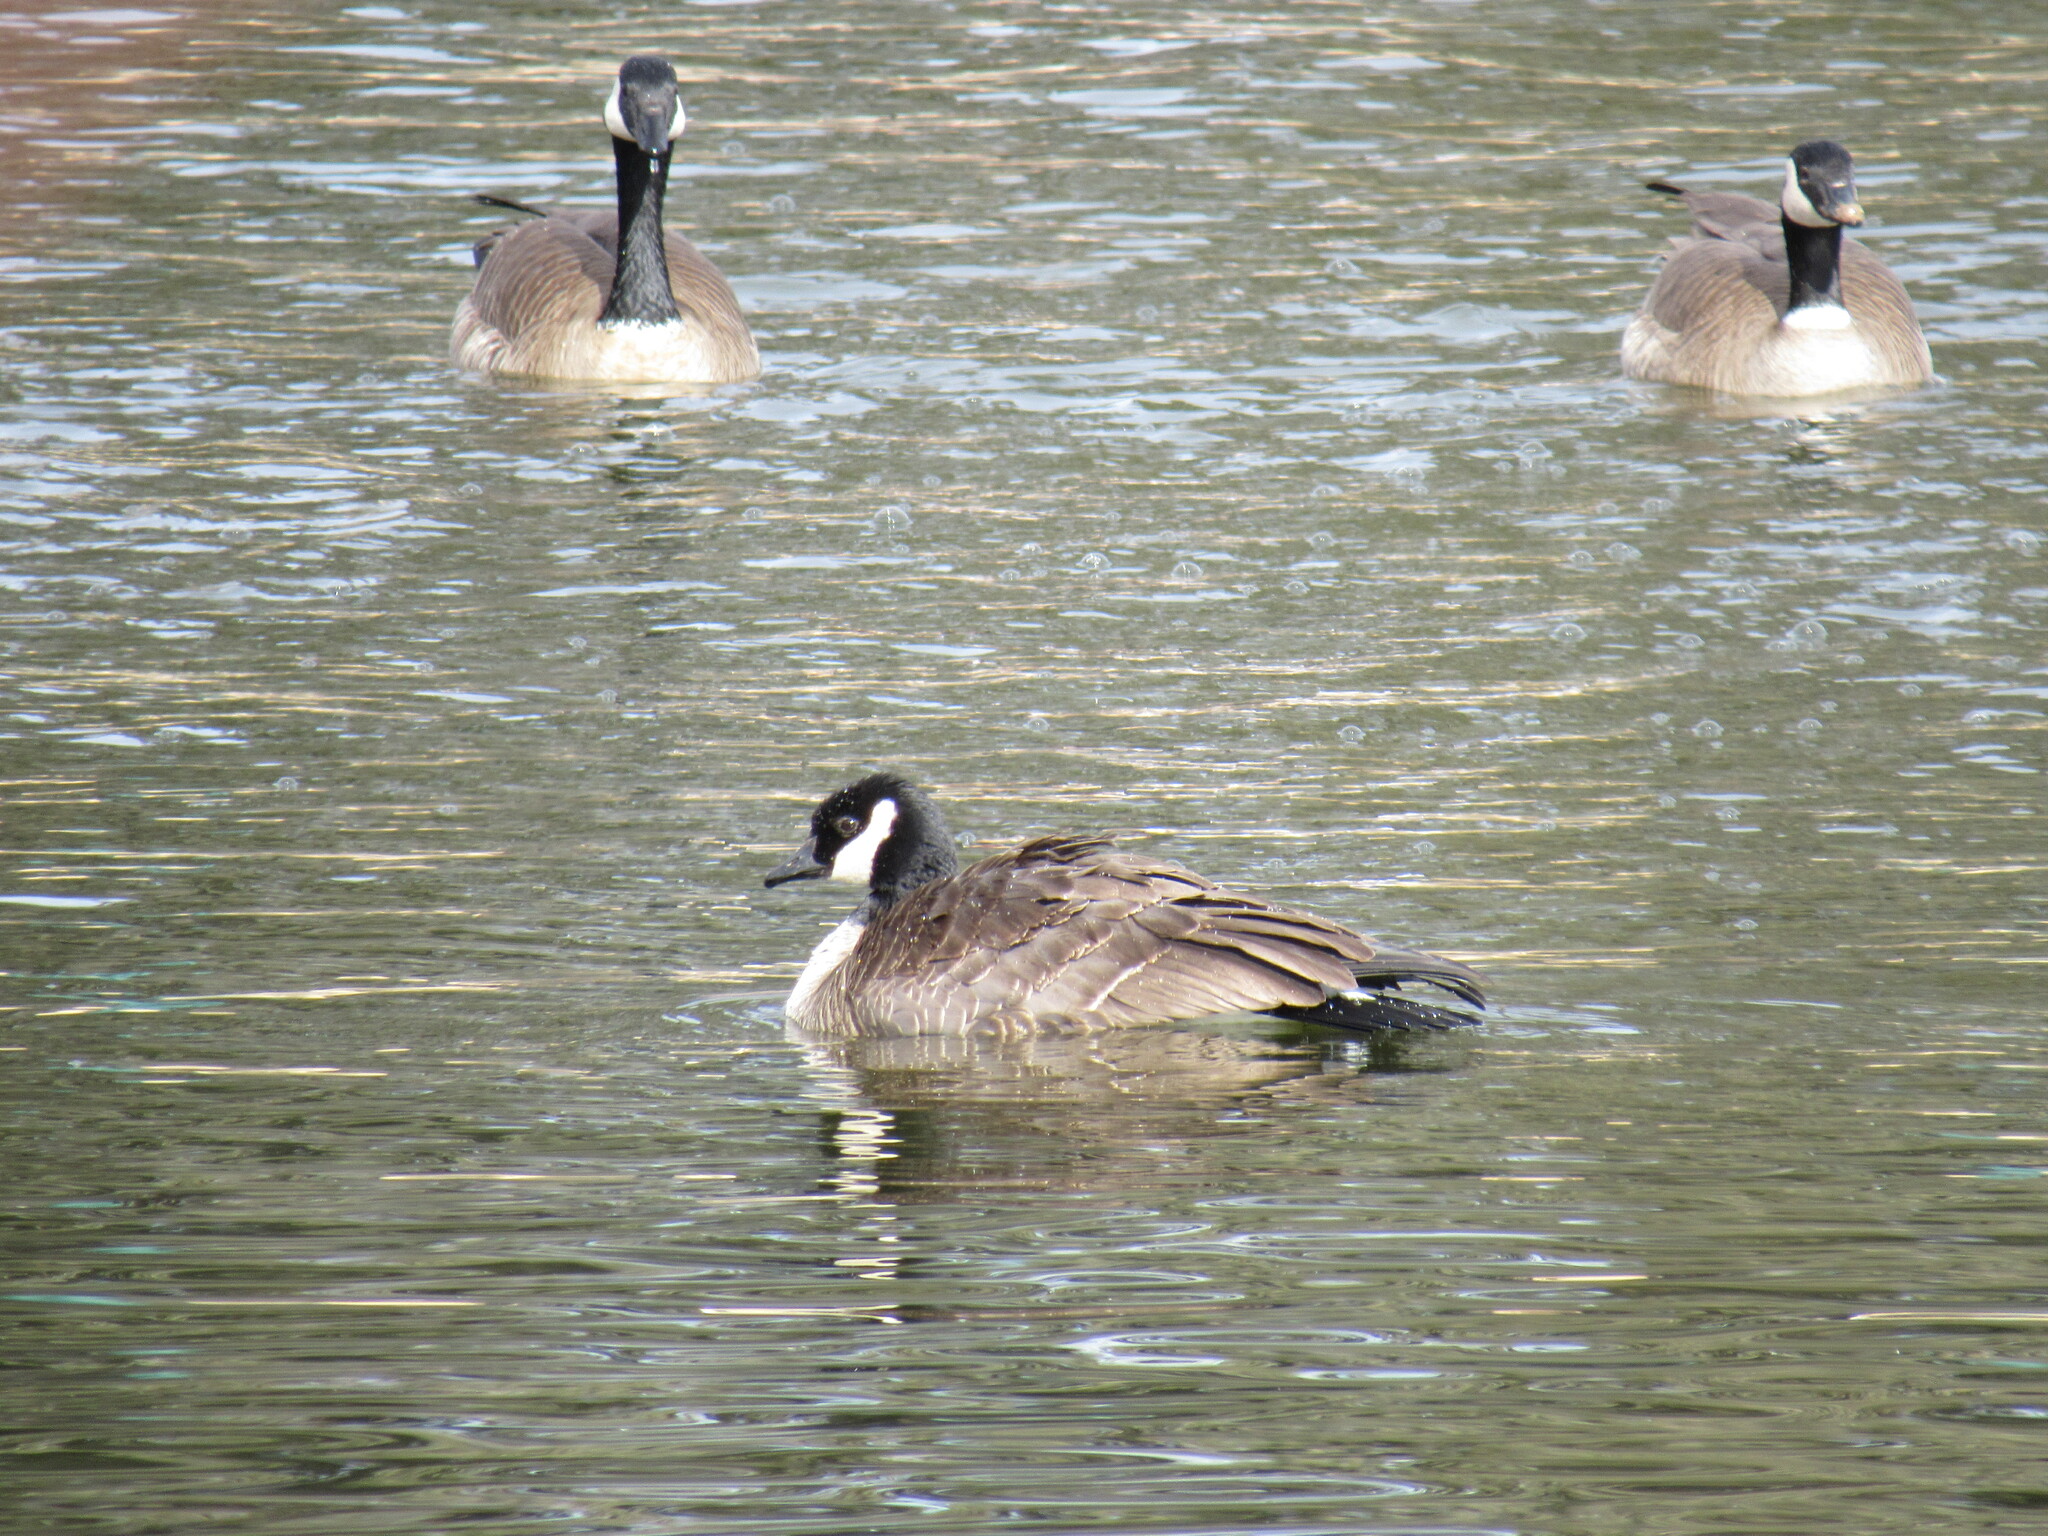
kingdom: Animalia
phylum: Chordata
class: Aves
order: Anseriformes
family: Anatidae
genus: Branta
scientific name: Branta hutchinsii
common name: Cackling goose
